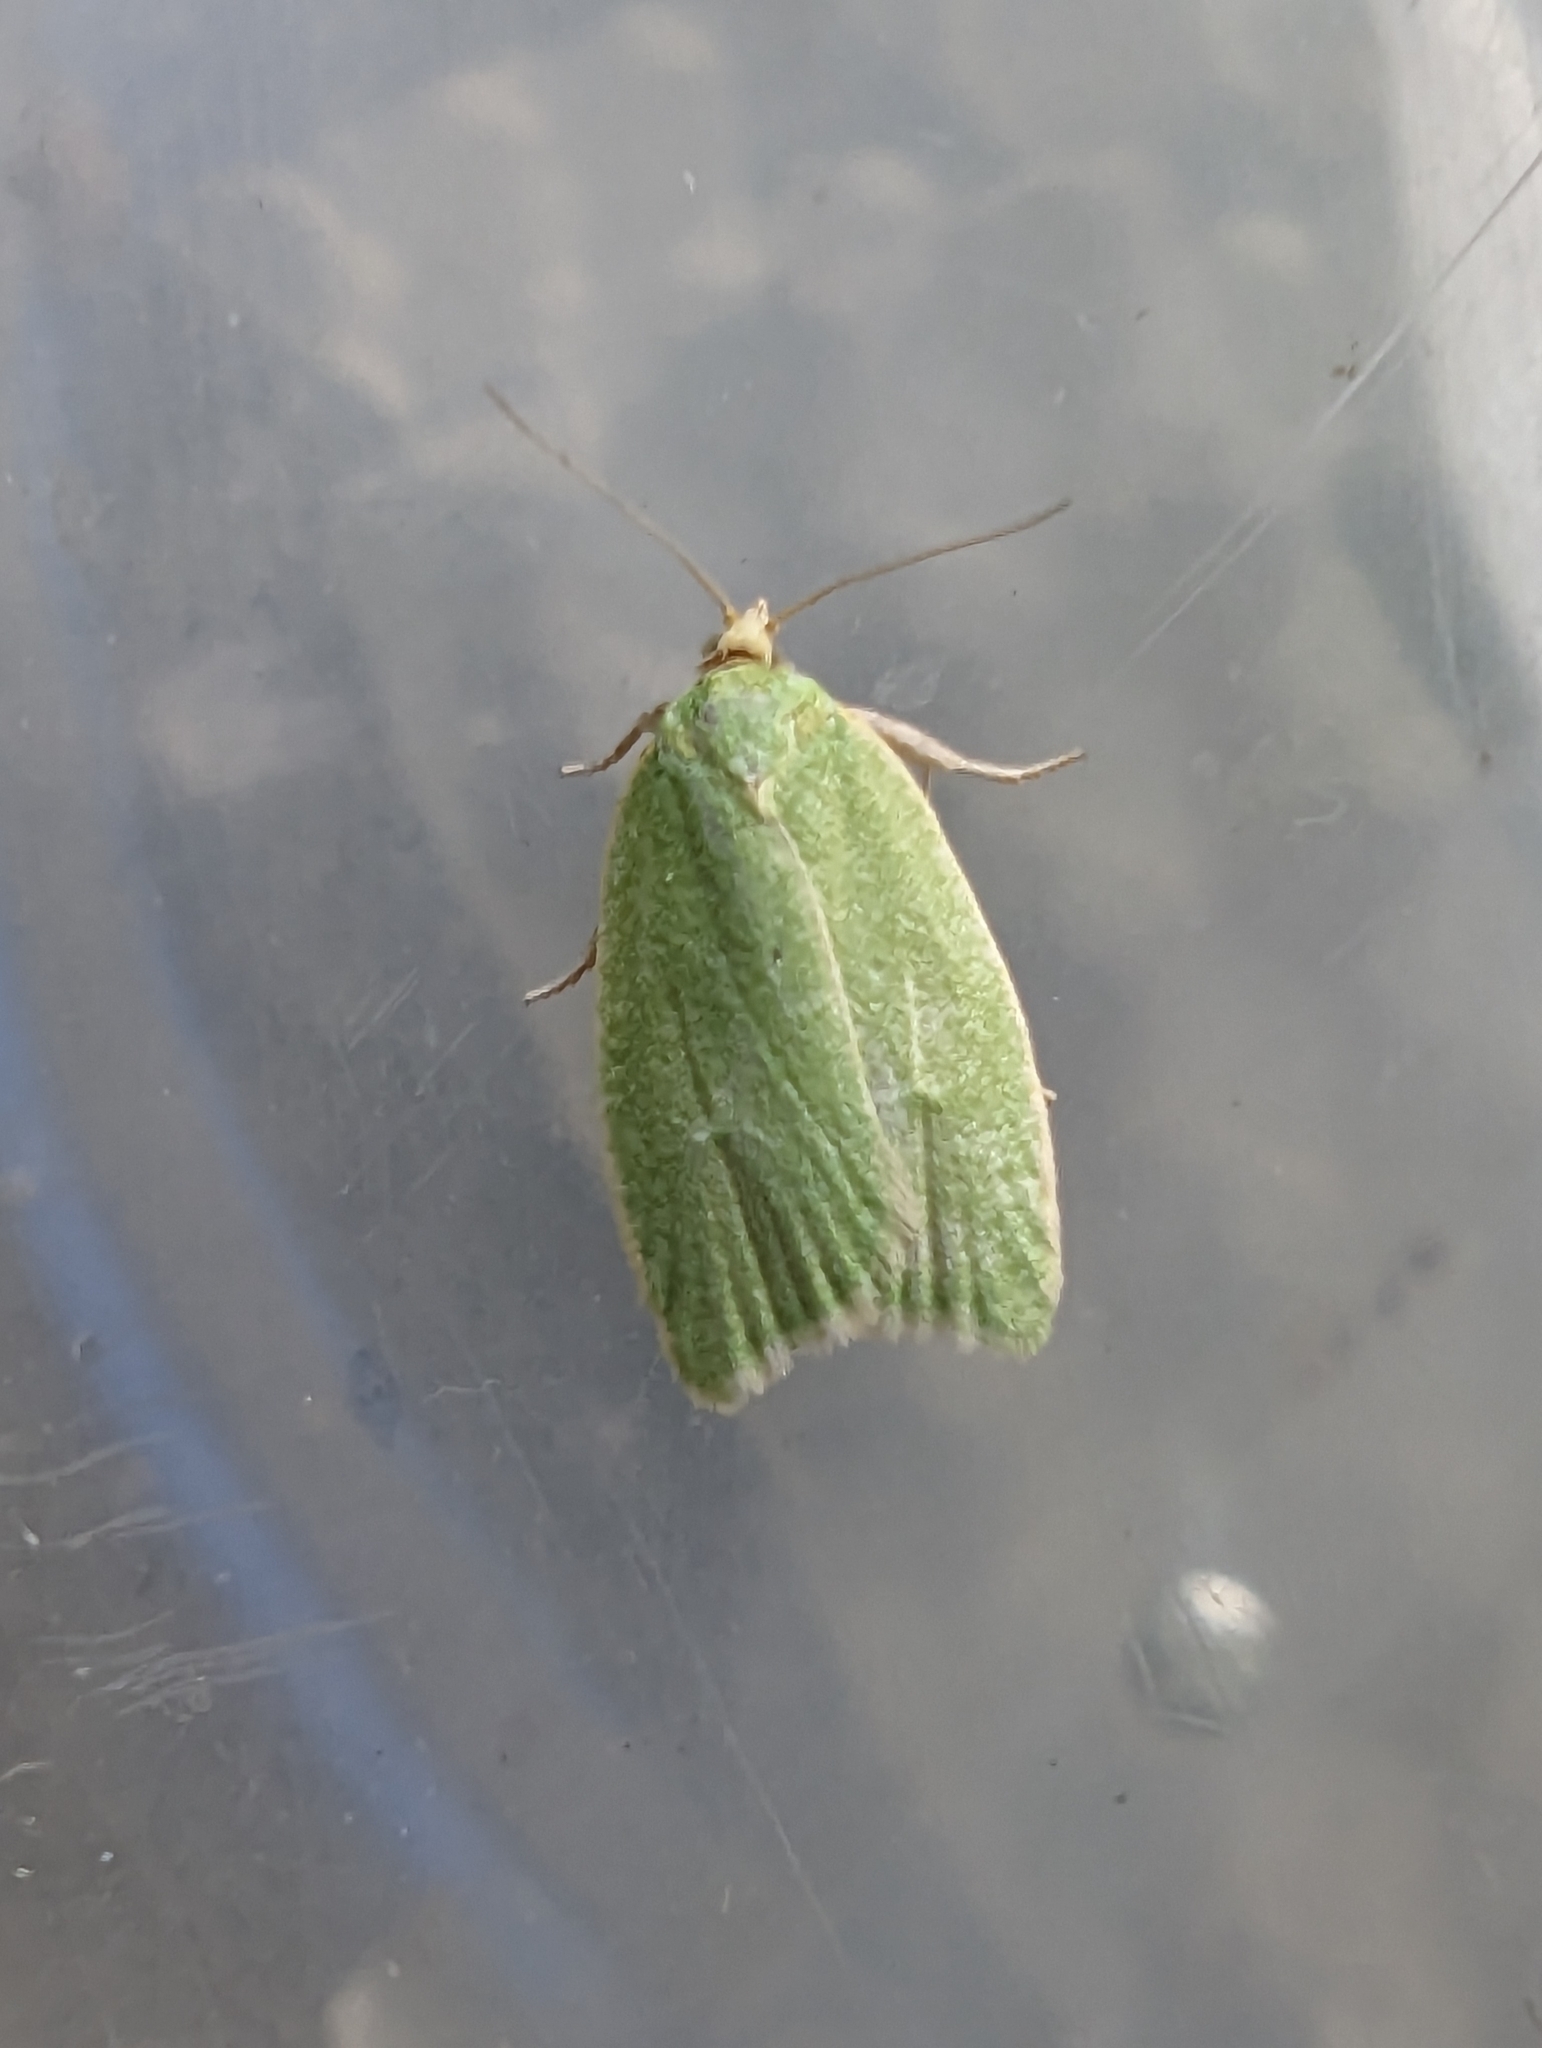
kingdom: Animalia
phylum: Arthropoda
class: Insecta
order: Lepidoptera
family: Tortricidae
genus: Tortrix
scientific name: Tortrix viridana
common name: Green oak tortrix
